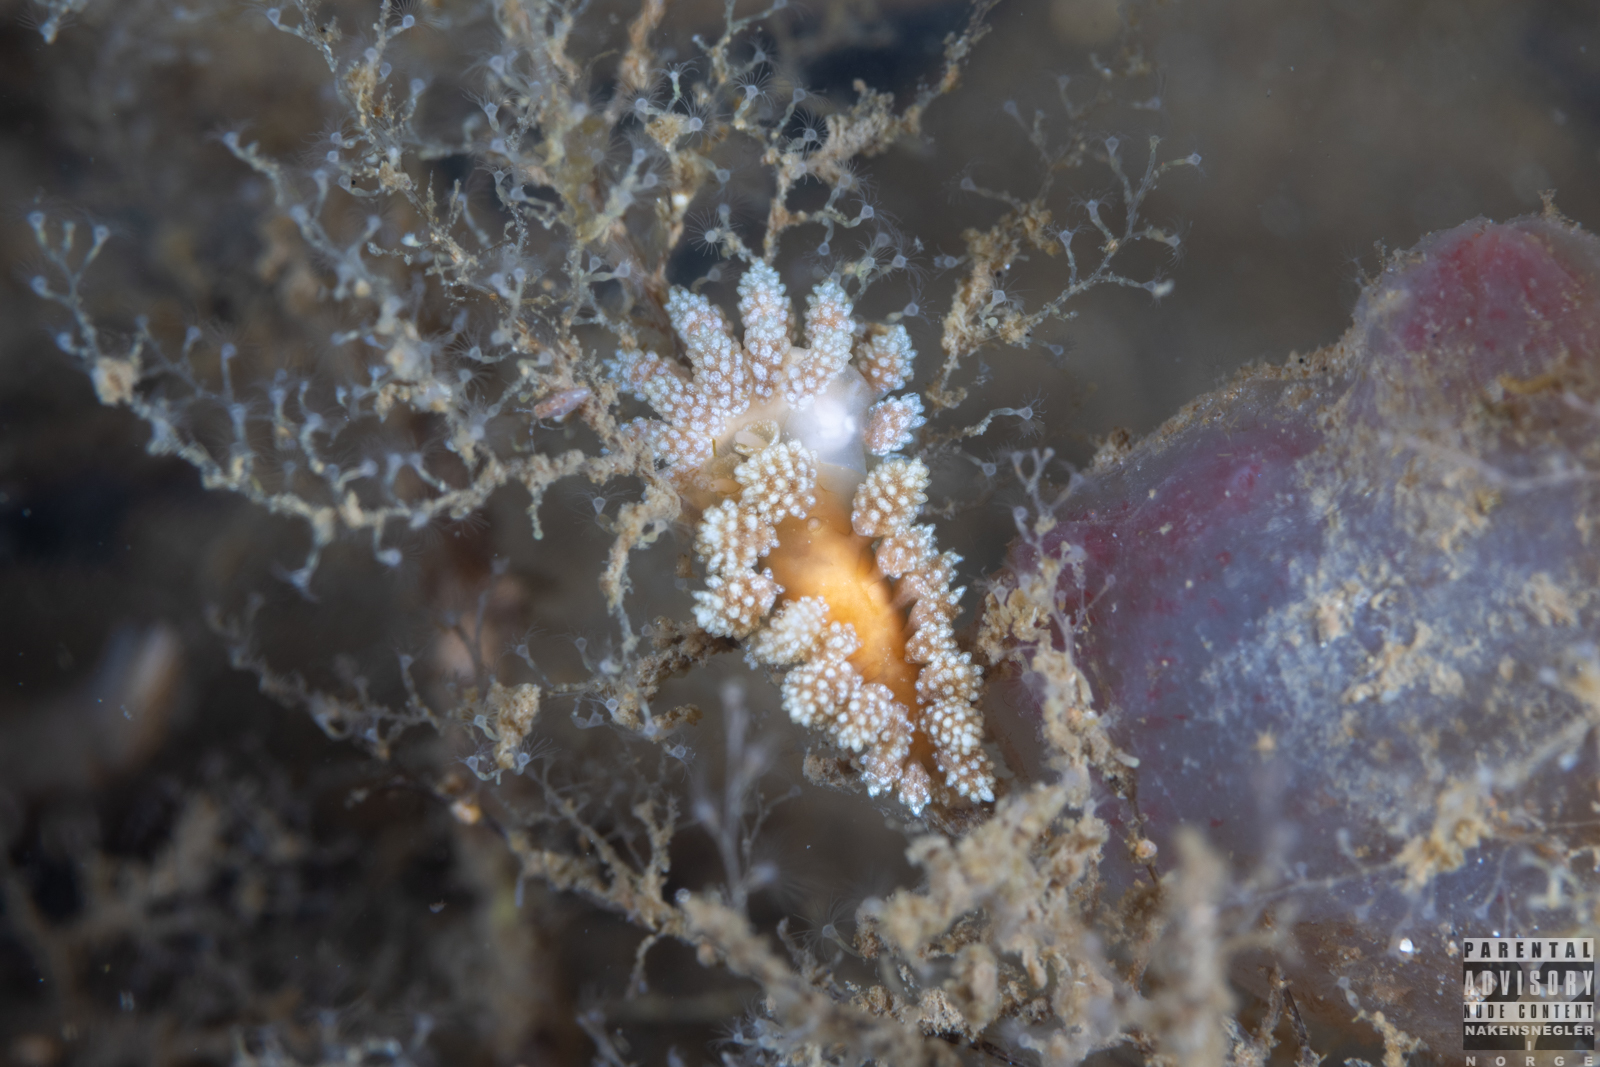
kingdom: Animalia
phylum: Mollusca
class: Gastropoda
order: Nudibranchia
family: Dotidae
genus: Doto
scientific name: Doto fragilis
